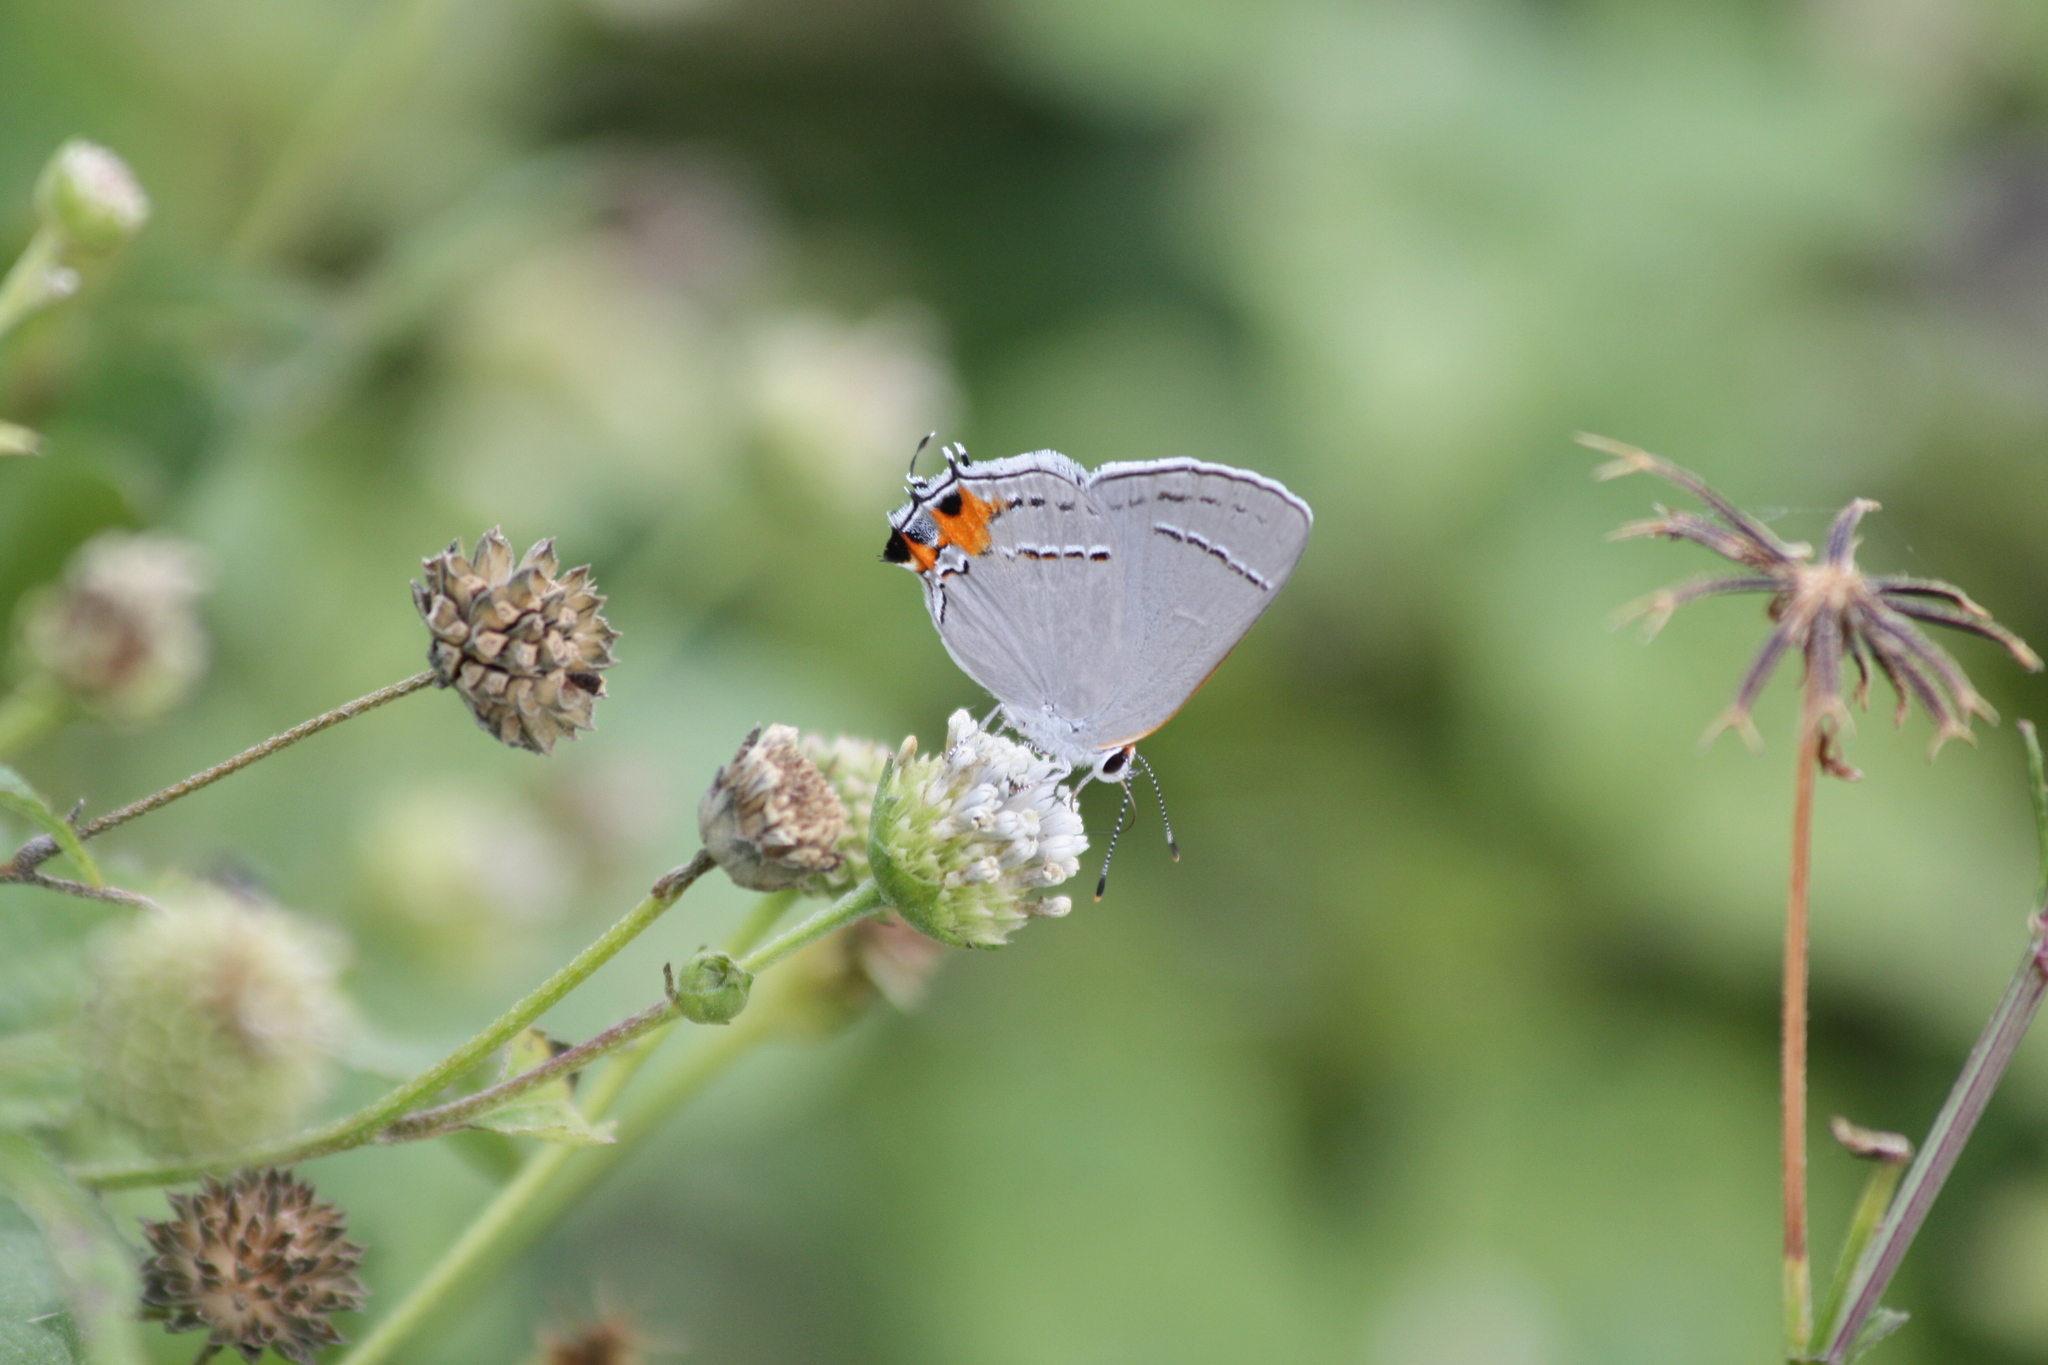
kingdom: Animalia
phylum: Arthropoda
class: Insecta
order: Lepidoptera
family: Lycaenidae
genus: Strymon
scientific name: Strymon melinus
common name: Gray hairstreak
